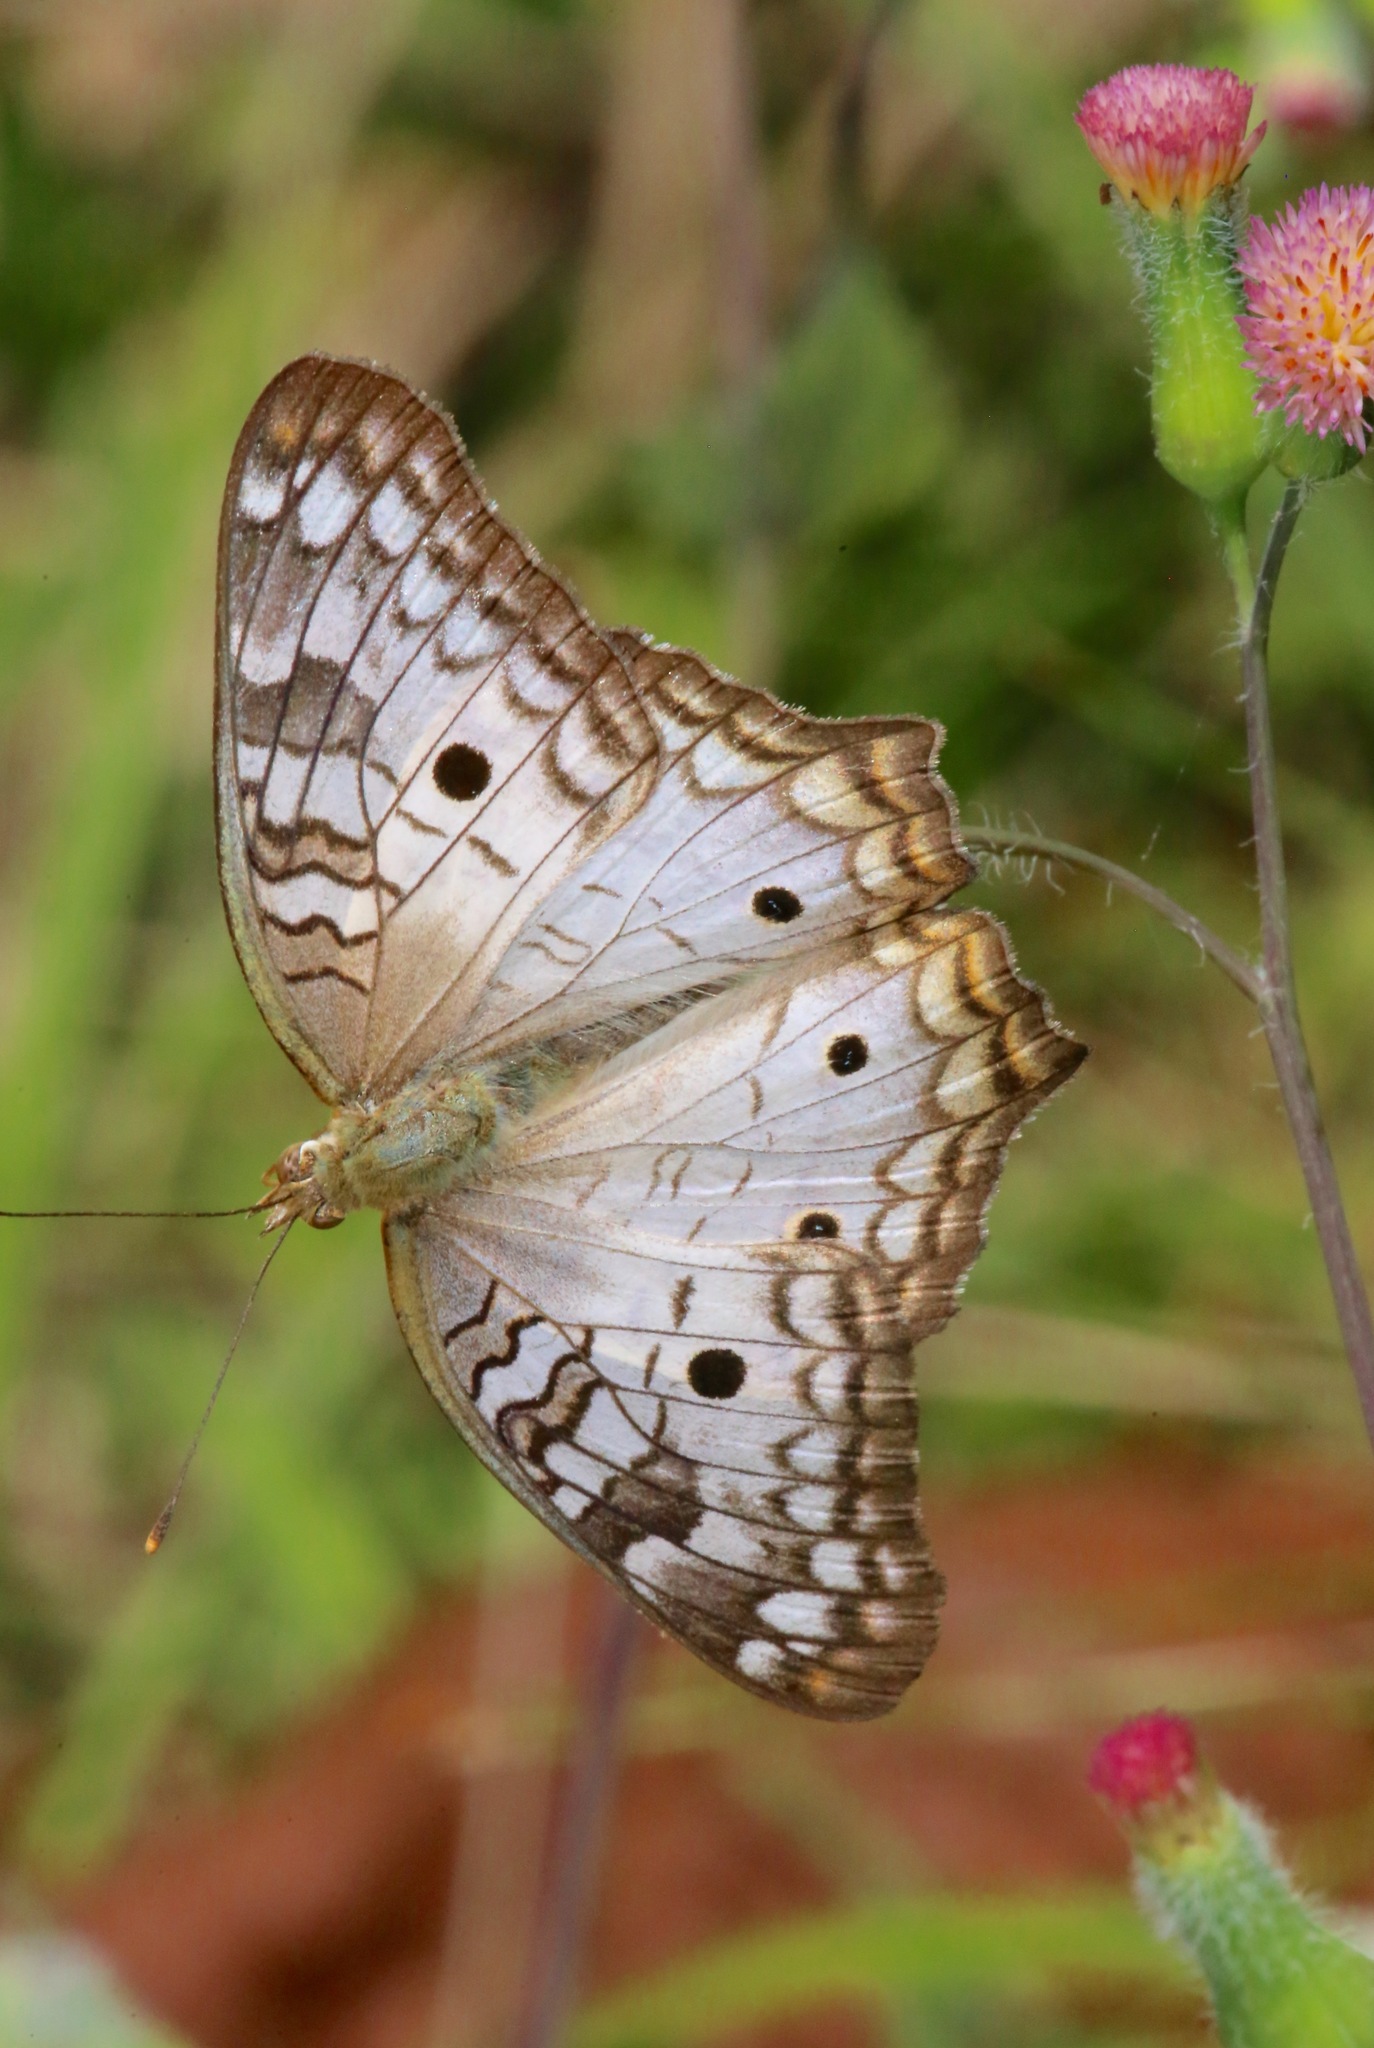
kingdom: Animalia
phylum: Arthropoda
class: Insecta
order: Lepidoptera
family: Nymphalidae
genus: Anartia
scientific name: Anartia jatrophae
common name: White peacock
